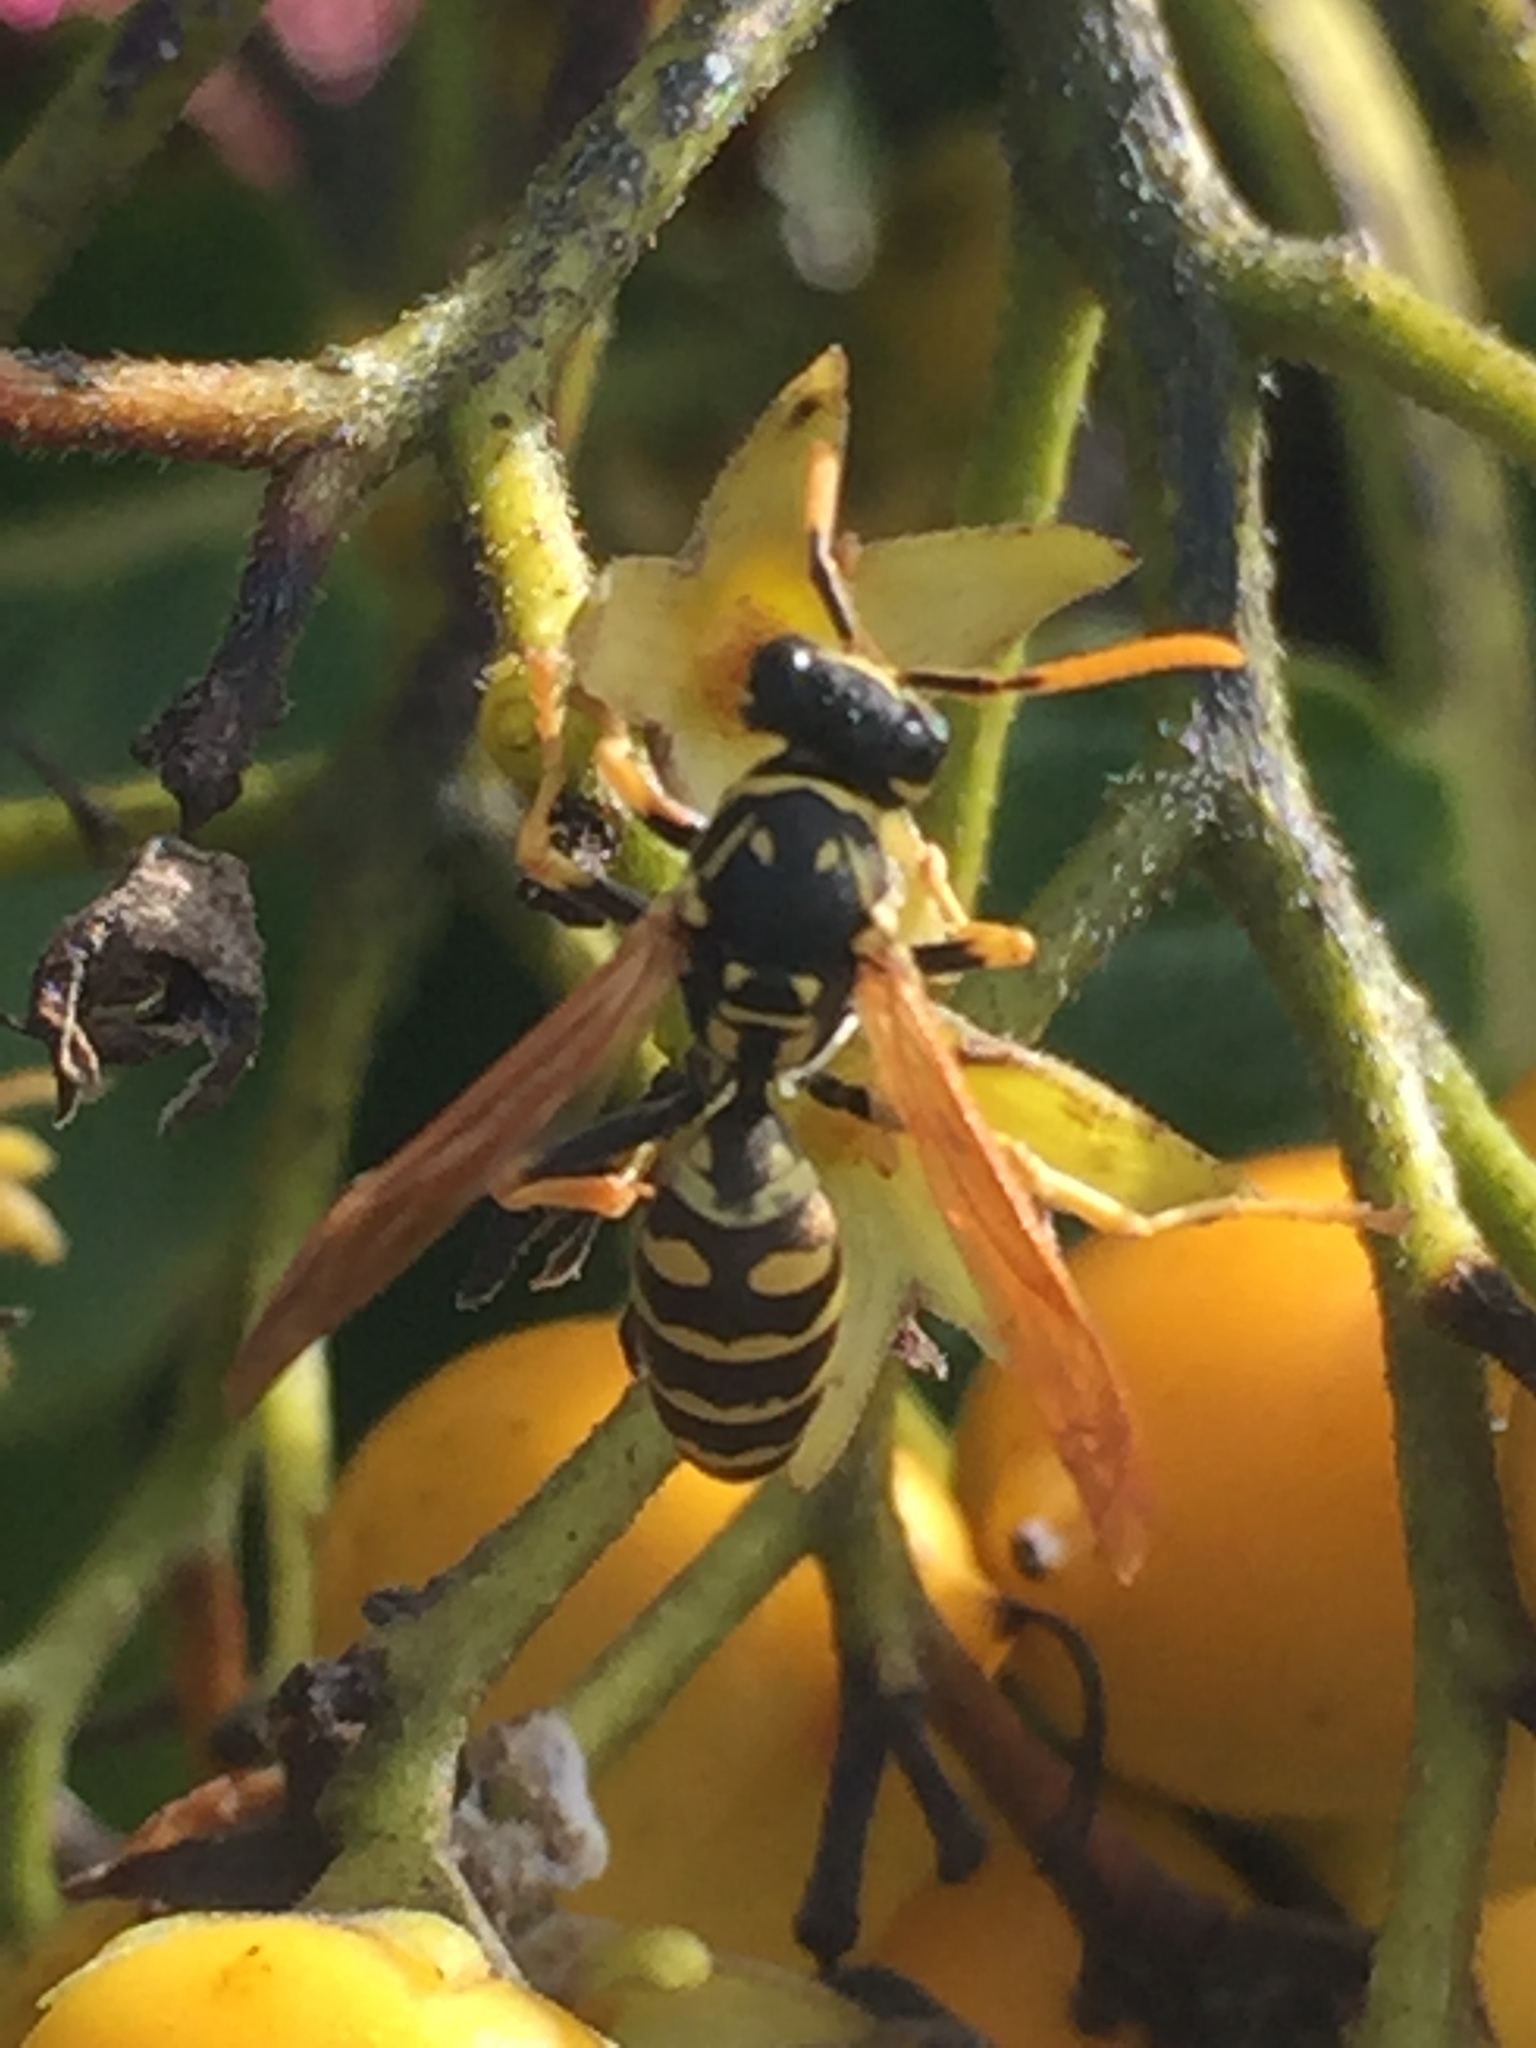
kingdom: Animalia
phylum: Arthropoda
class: Insecta
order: Hymenoptera
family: Eumenidae
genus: Polistes
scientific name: Polistes dominula
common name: Paper wasp
